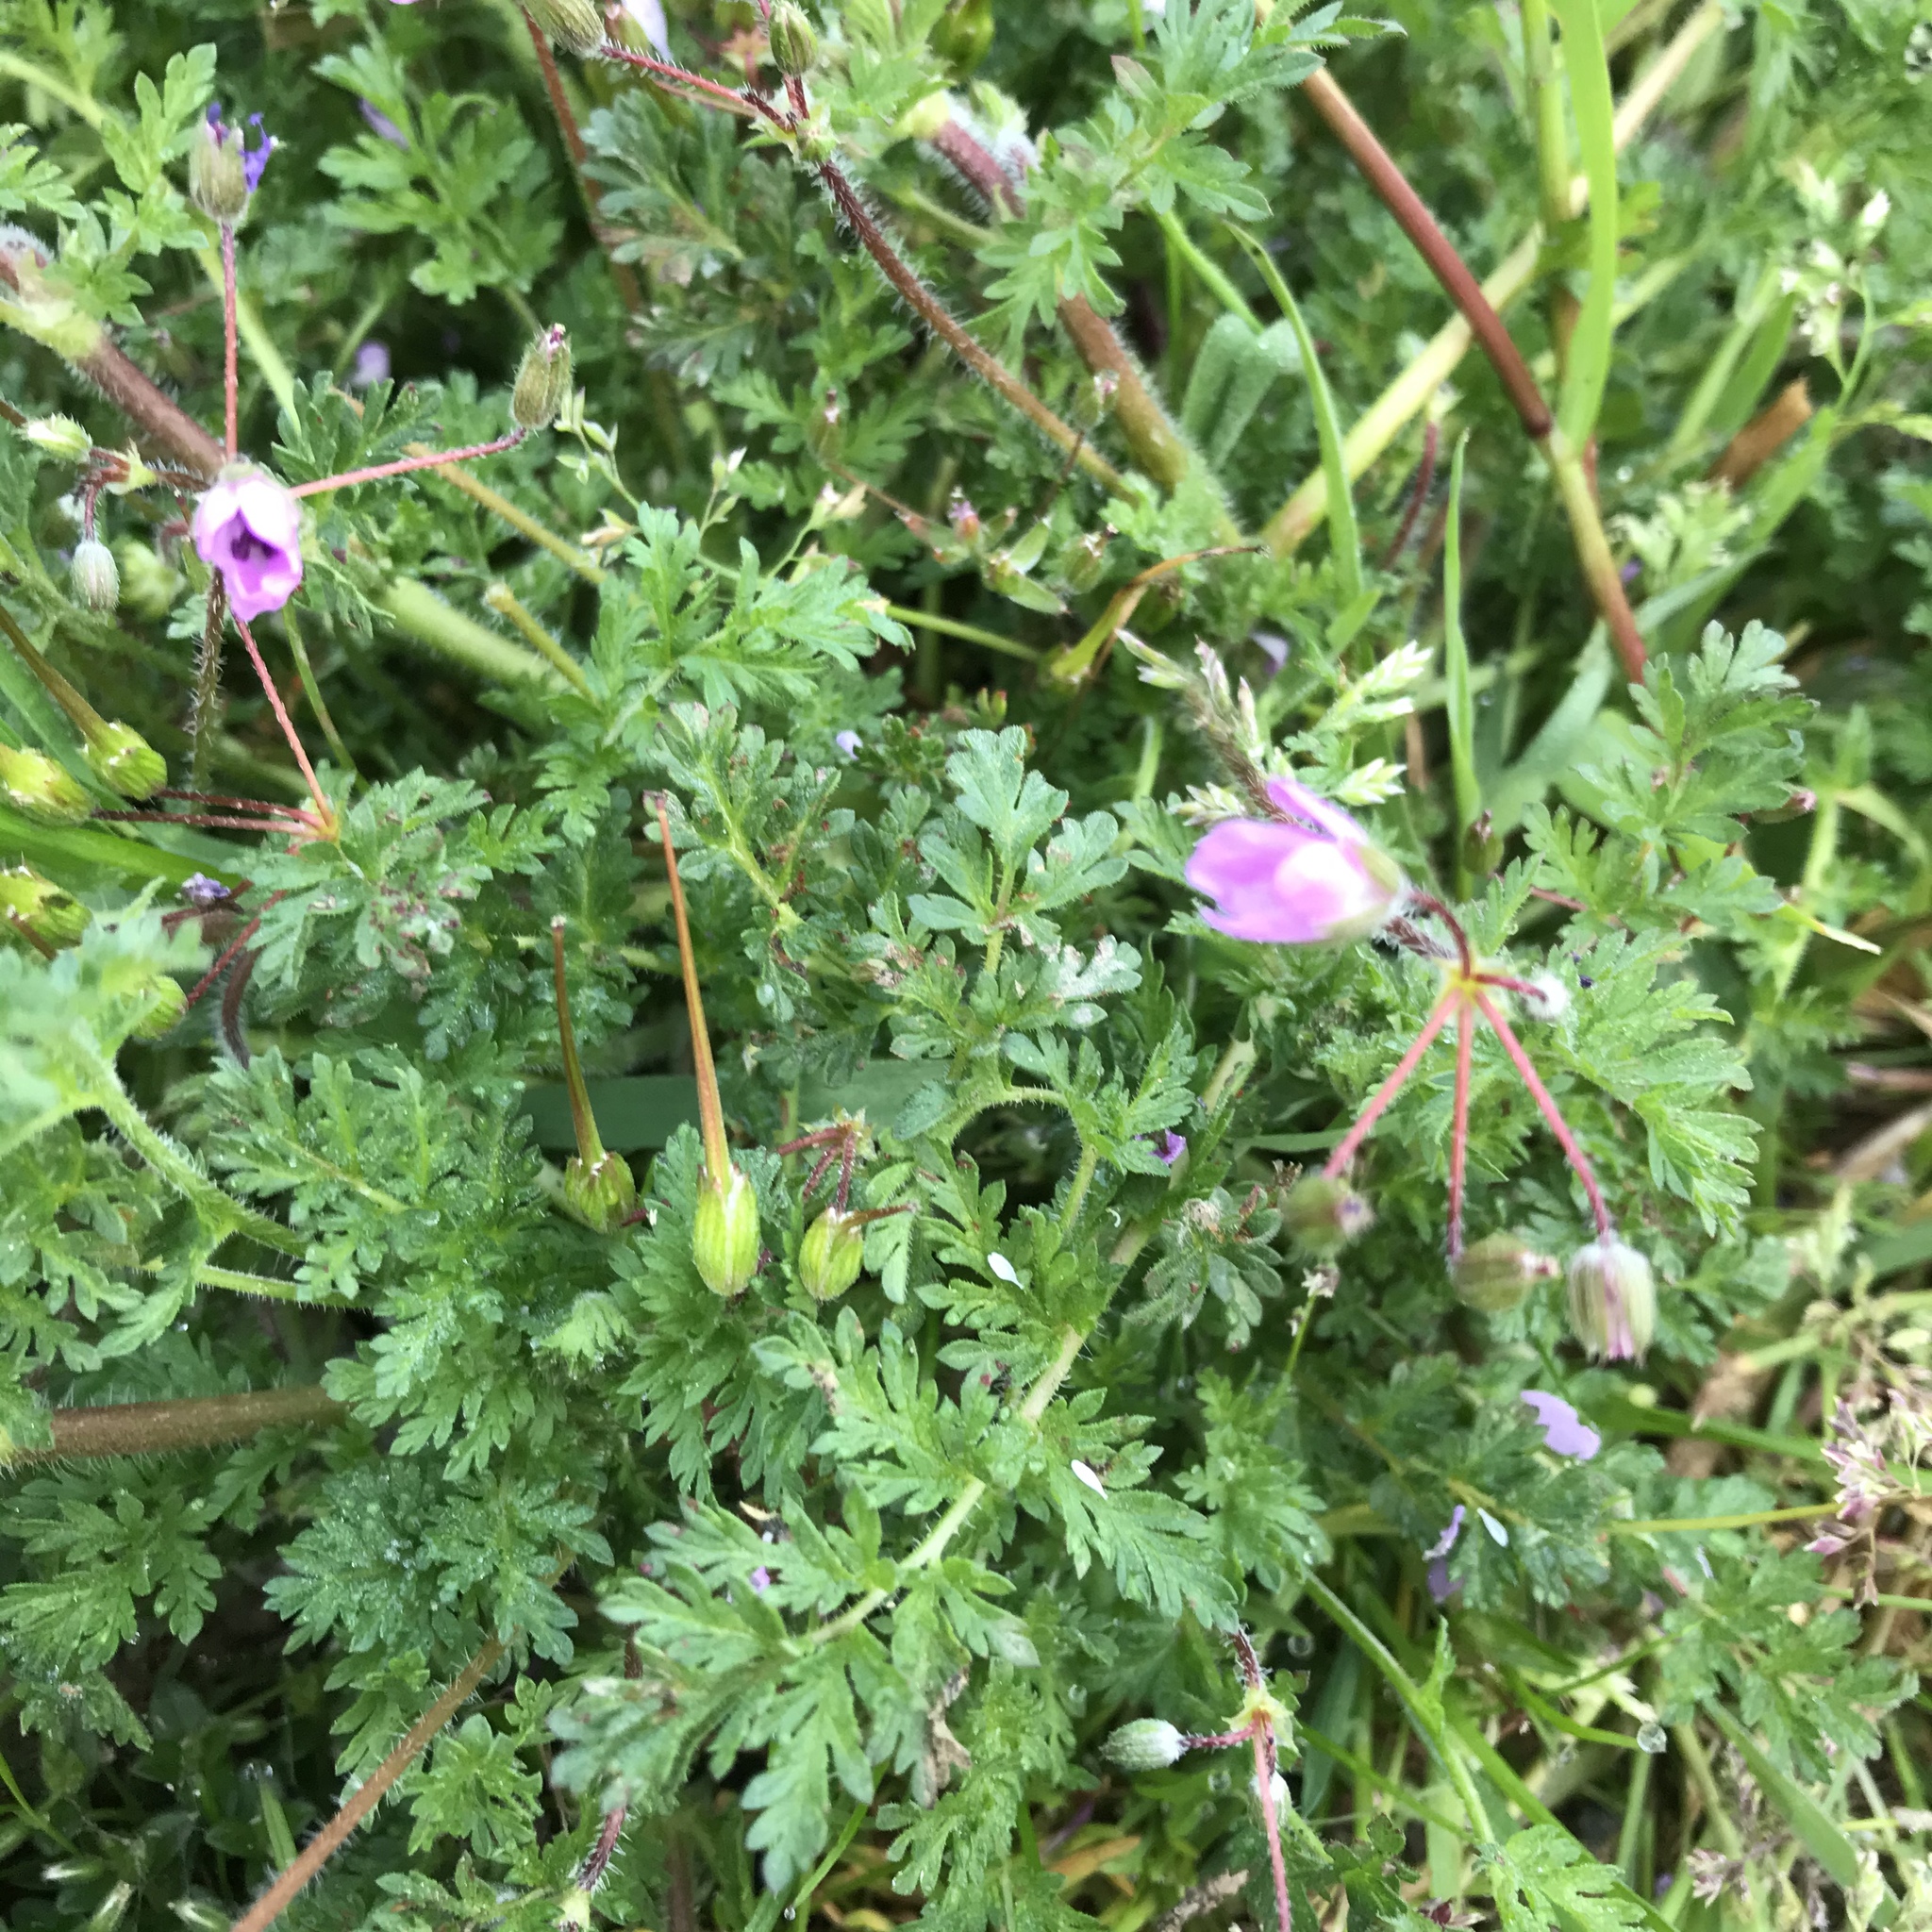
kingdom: Plantae
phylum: Tracheophyta
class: Magnoliopsida
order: Geraniales
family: Geraniaceae
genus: Erodium
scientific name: Erodium cicutarium
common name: Common stork's-bill
